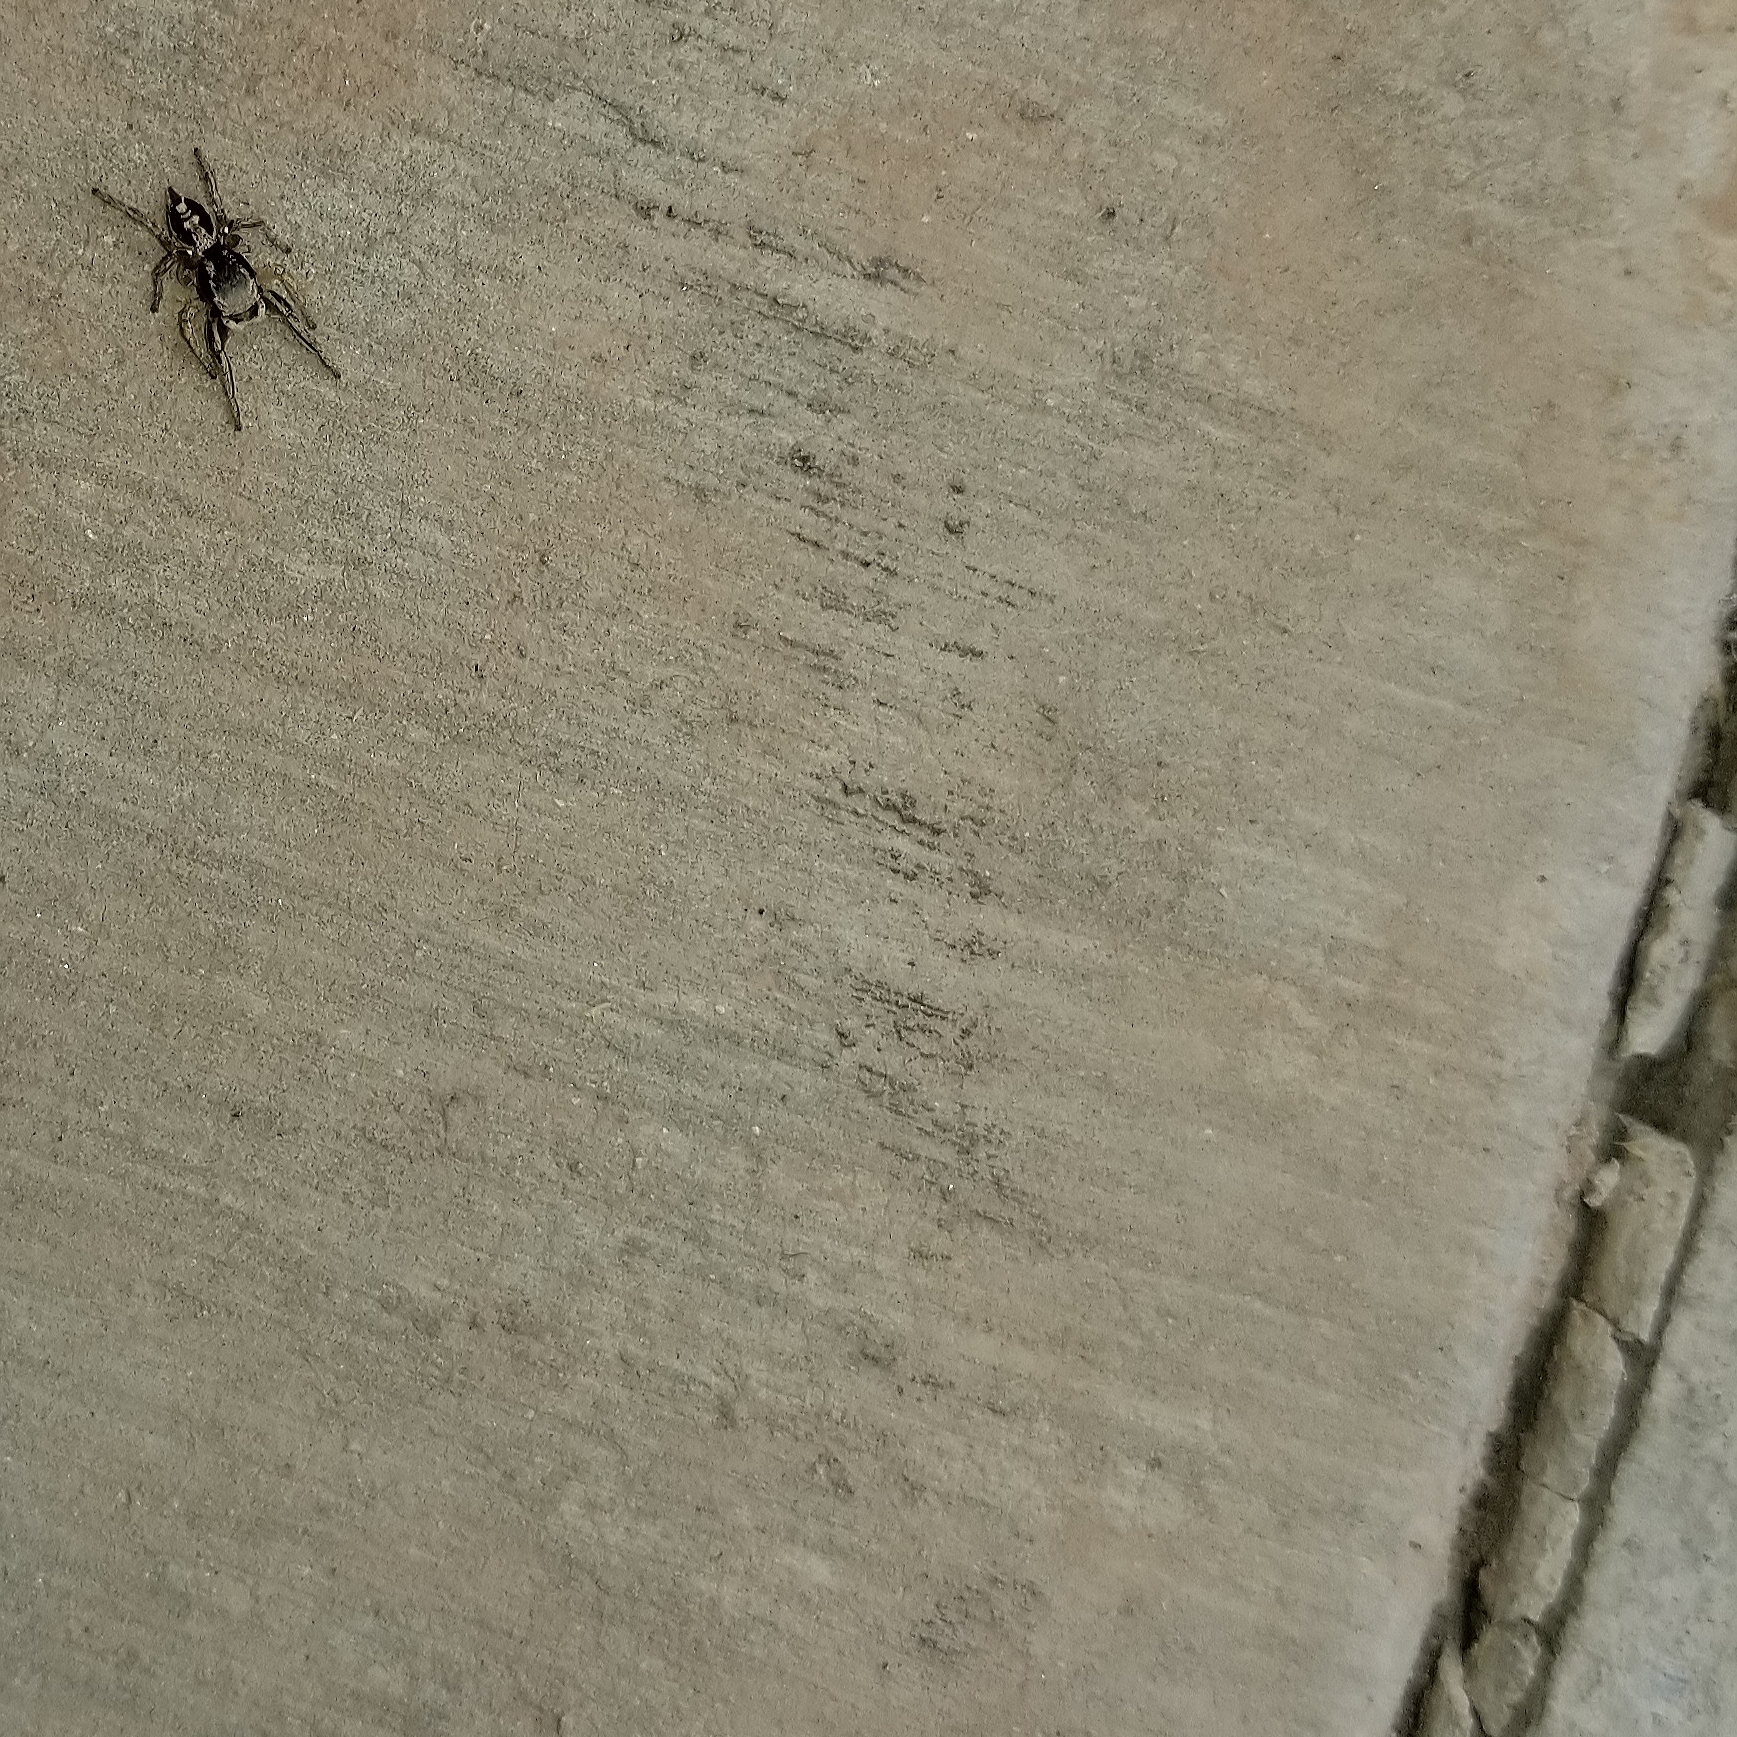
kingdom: Animalia
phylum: Arthropoda
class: Arachnida
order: Araneae
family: Salticidae
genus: Habronattus
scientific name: Habronattus pyrrithrix
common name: Jumping spider
